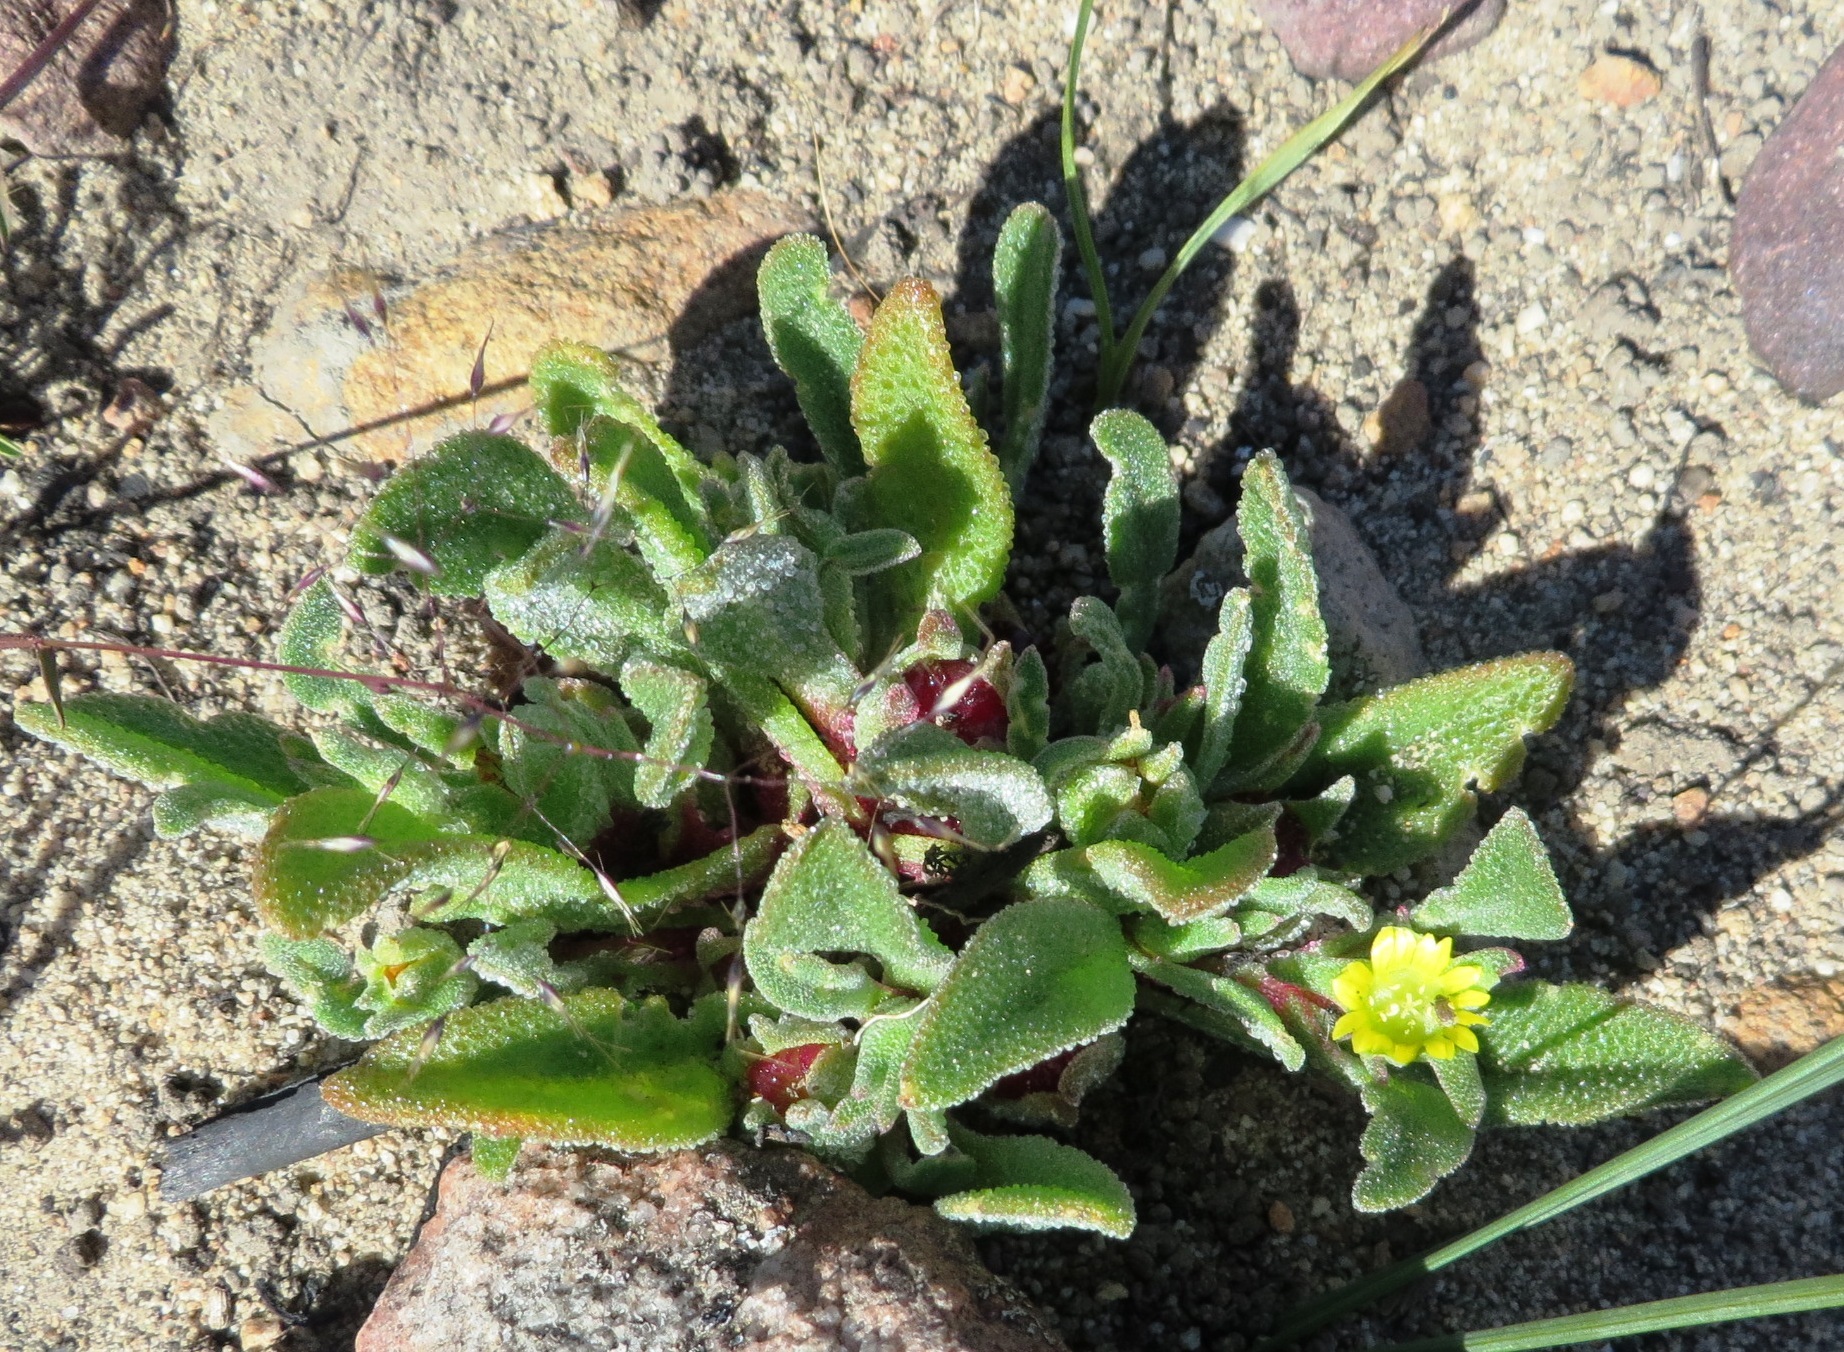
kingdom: Plantae
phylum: Tracheophyta
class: Magnoliopsida
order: Caryophyllales
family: Aizoaceae
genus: Cleretum
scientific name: Cleretum papulosum
